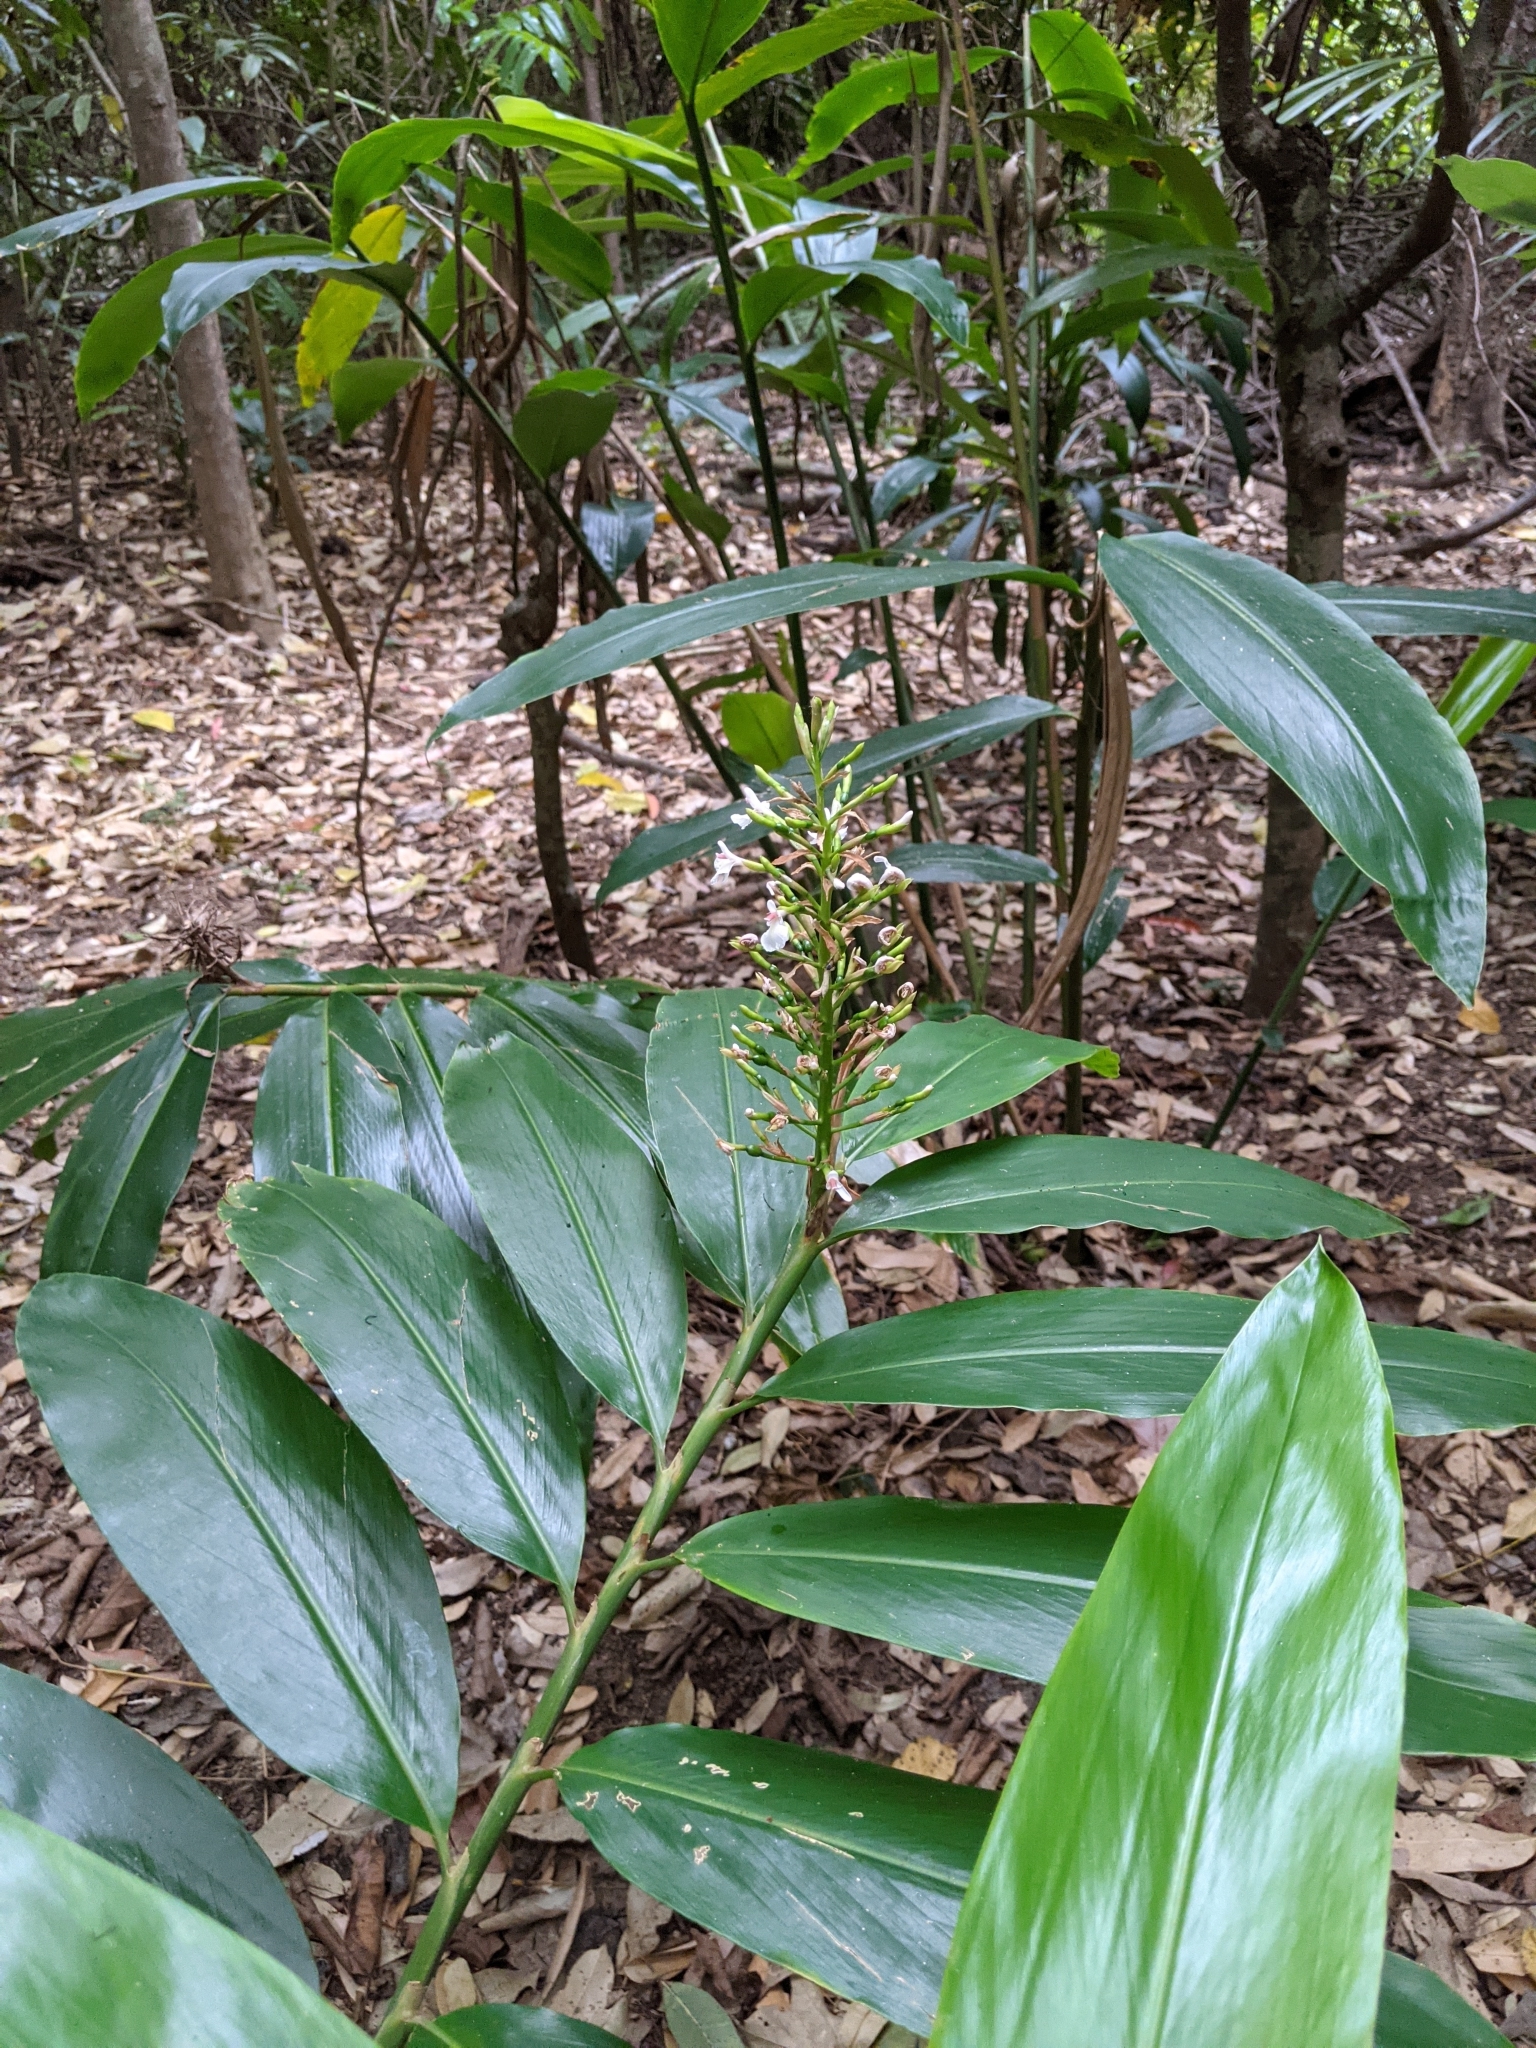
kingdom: Plantae
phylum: Tracheophyta
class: Liliopsida
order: Zingiberales
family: Zingiberaceae
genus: Alpinia
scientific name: Alpinia caerulea
